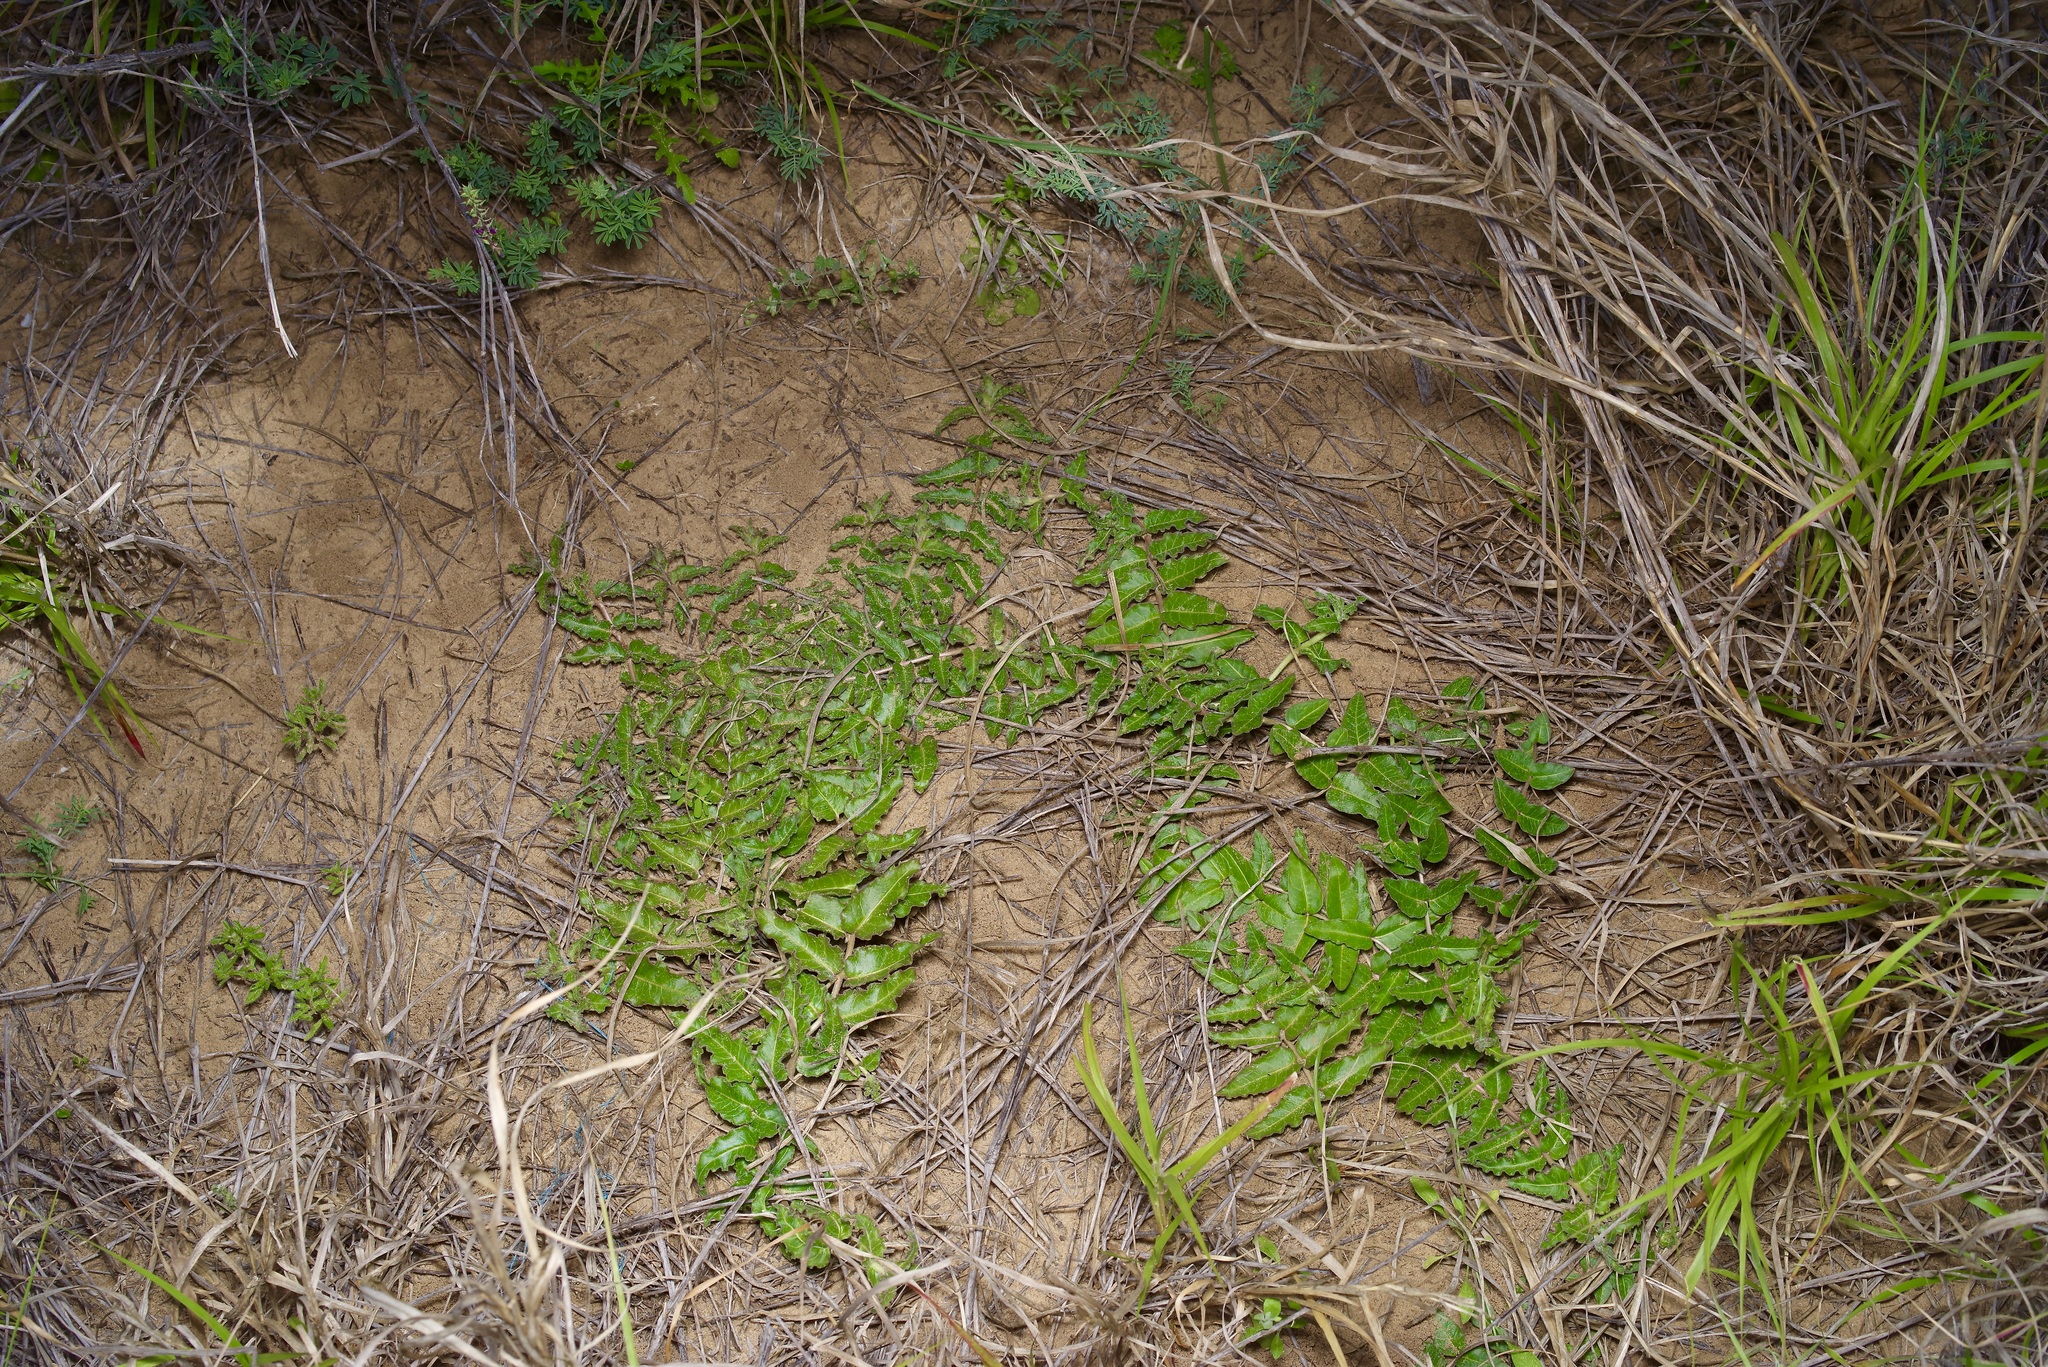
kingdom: Plantae
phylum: Tracheophyta
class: Magnoliopsida
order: Gentianales
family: Apocynaceae
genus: Asclepias
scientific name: Asclepias prostrata
